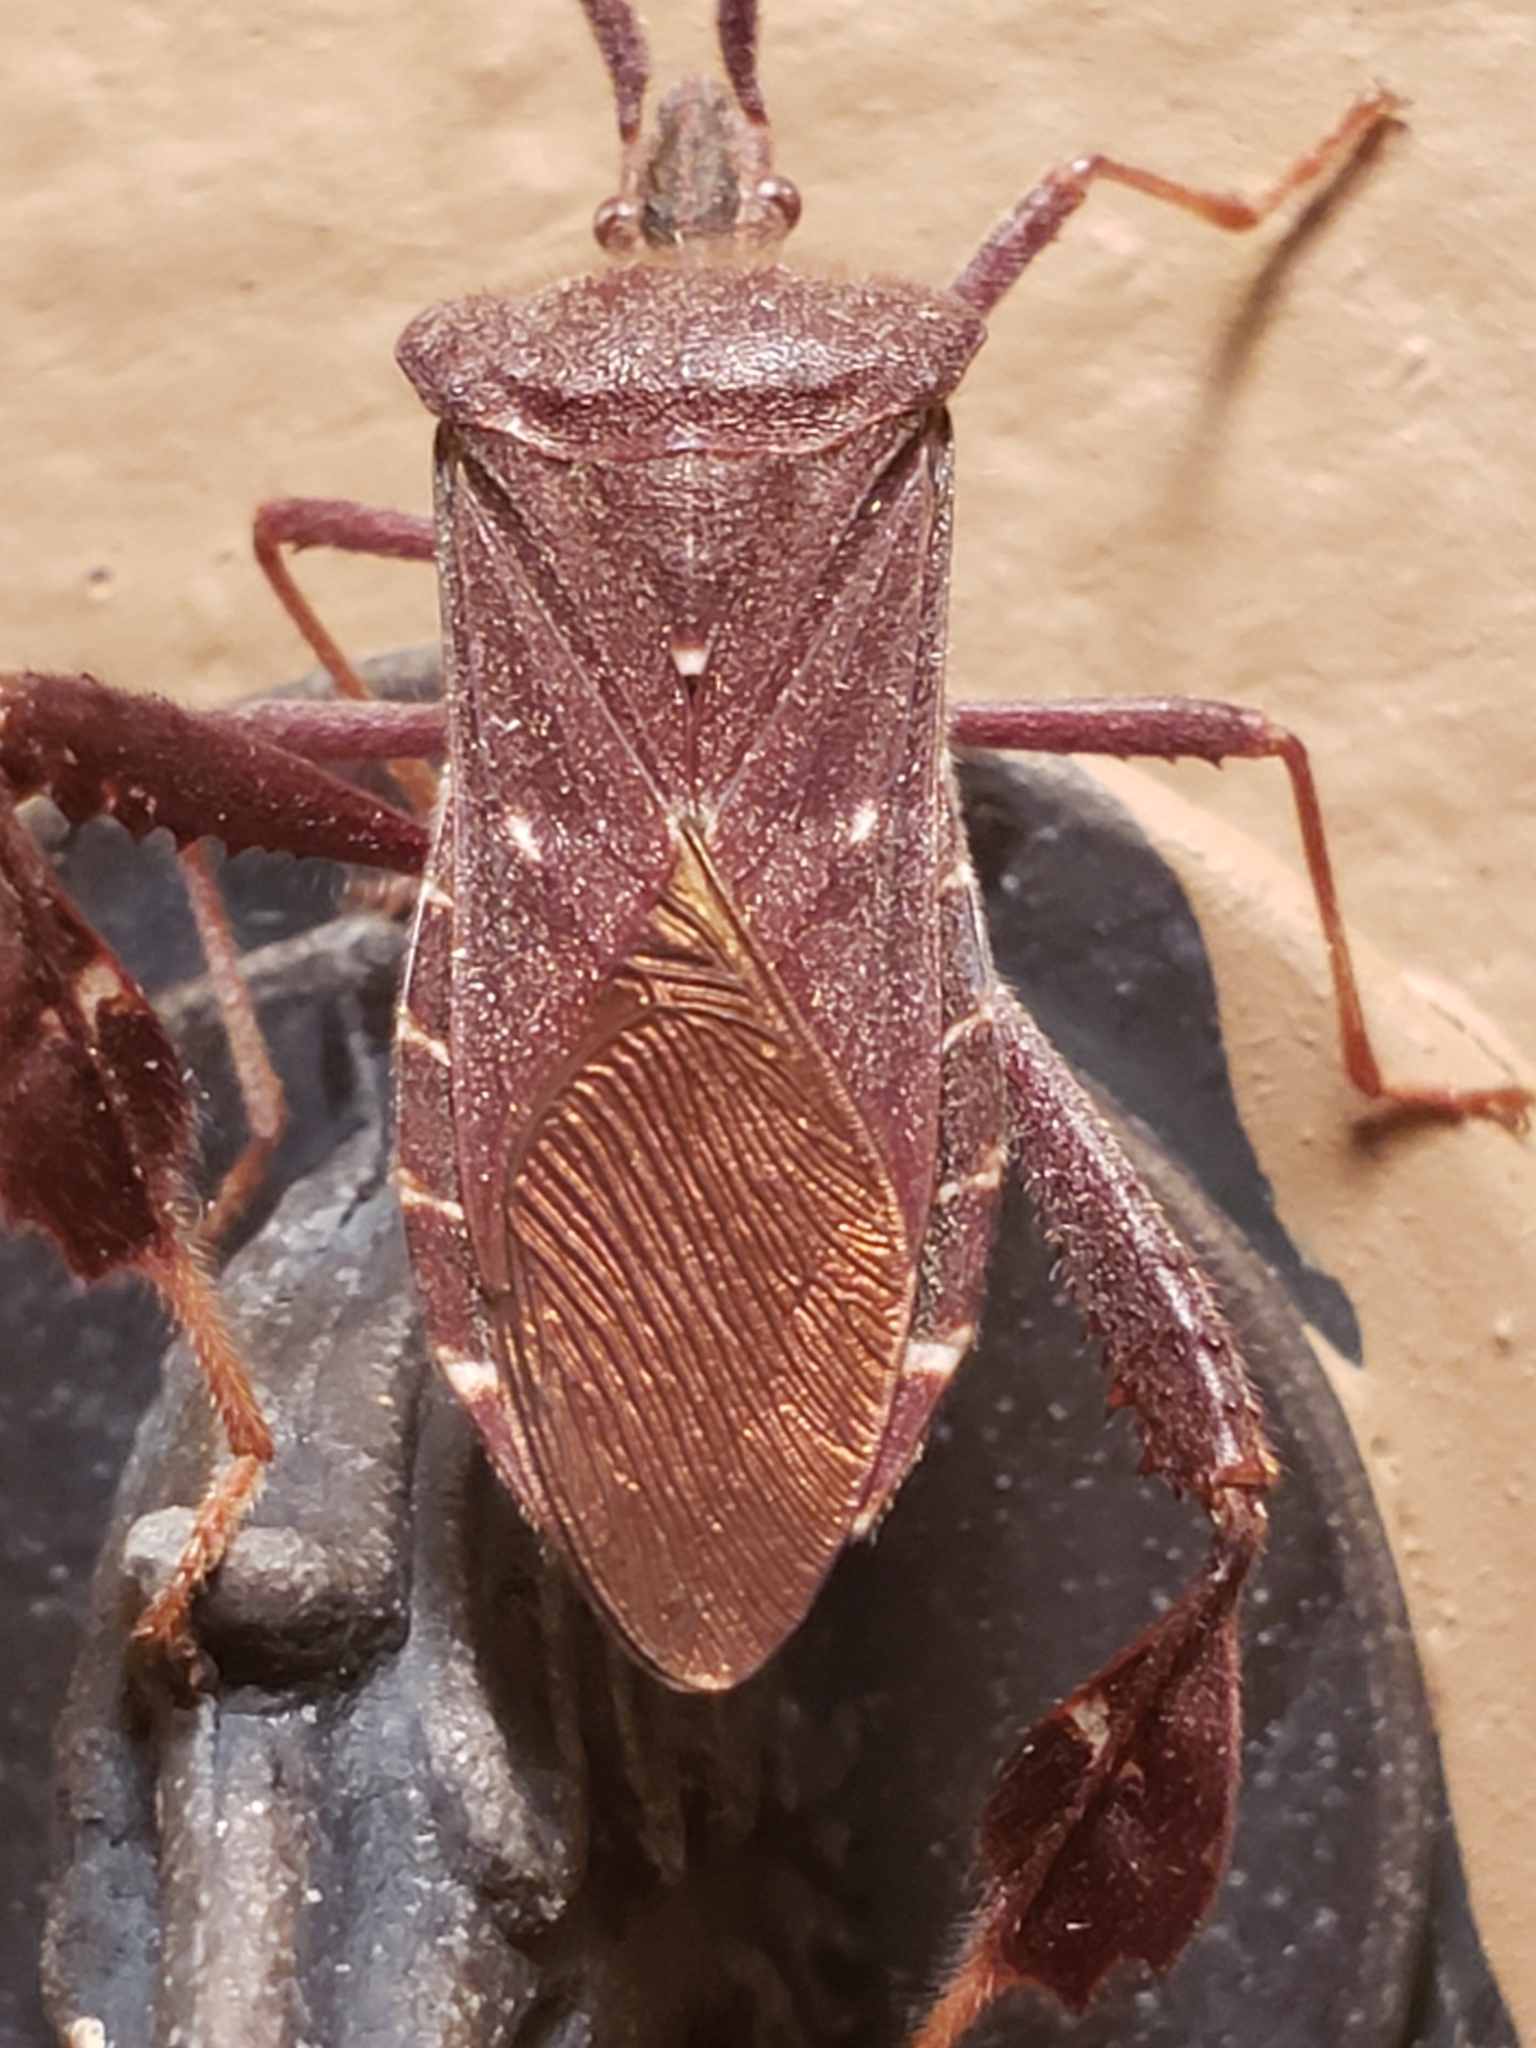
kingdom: Animalia
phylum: Arthropoda
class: Insecta
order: Hemiptera
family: Coreidae
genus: Leptoglossus
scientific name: Leptoglossus oppositus
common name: Northern leaf-footed bug
